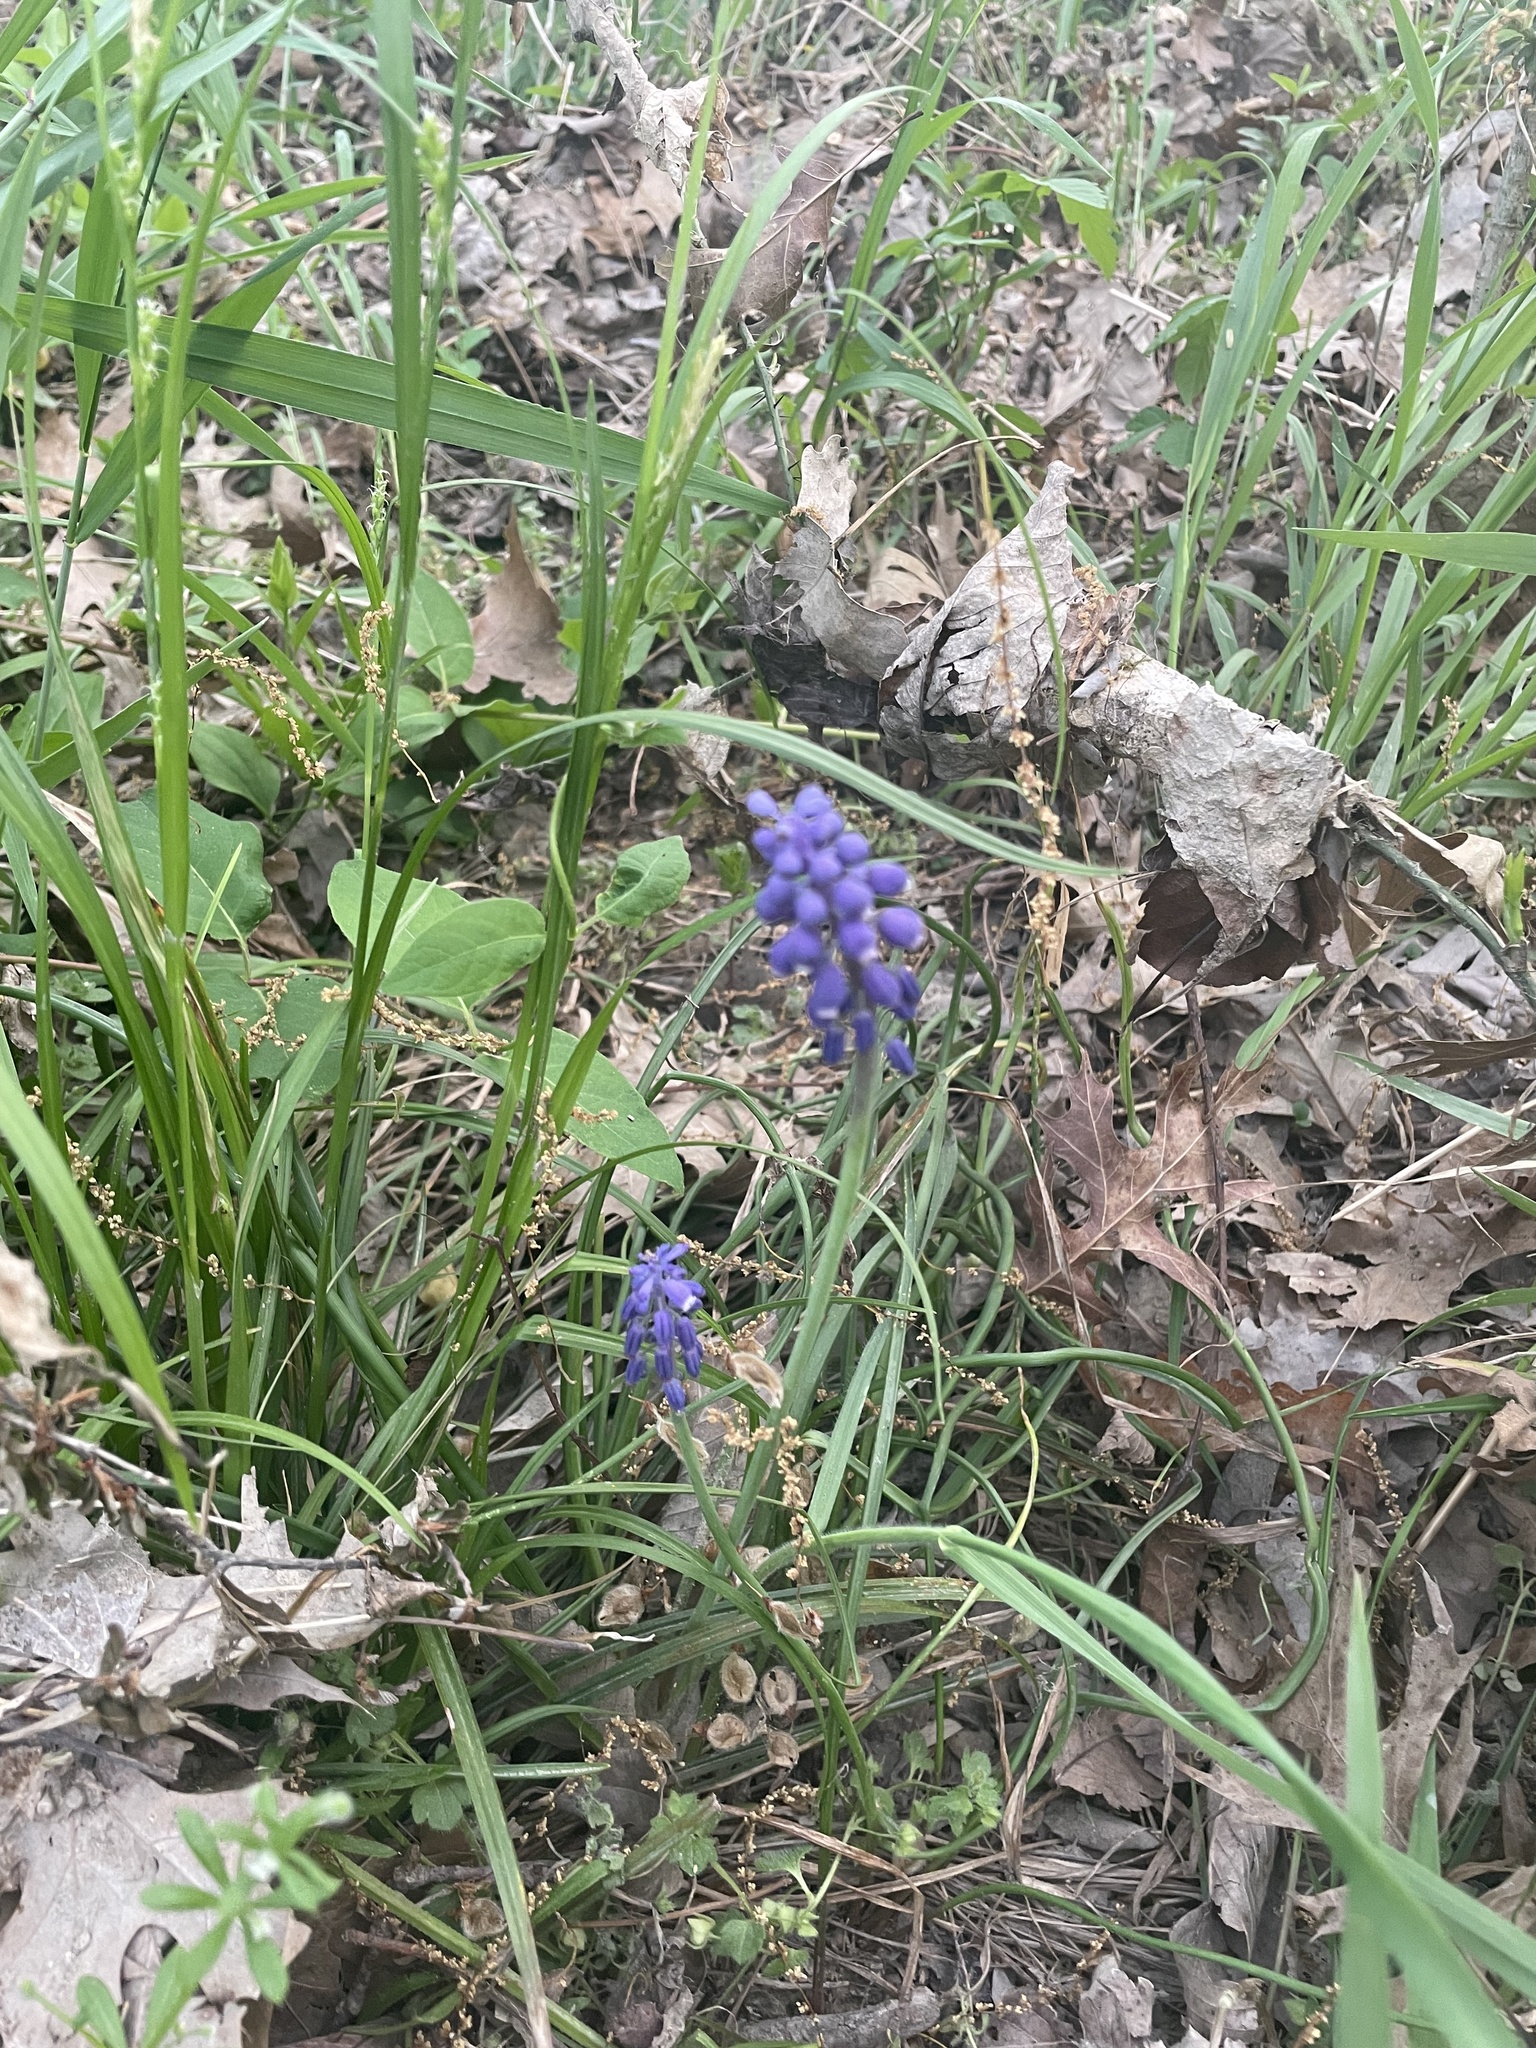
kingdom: Plantae
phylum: Tracheophyta
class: Liliopsida
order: Asparagales
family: Asparagaceae
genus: Muscari
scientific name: Muscari botryoides
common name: Compact grape-hyacinth
